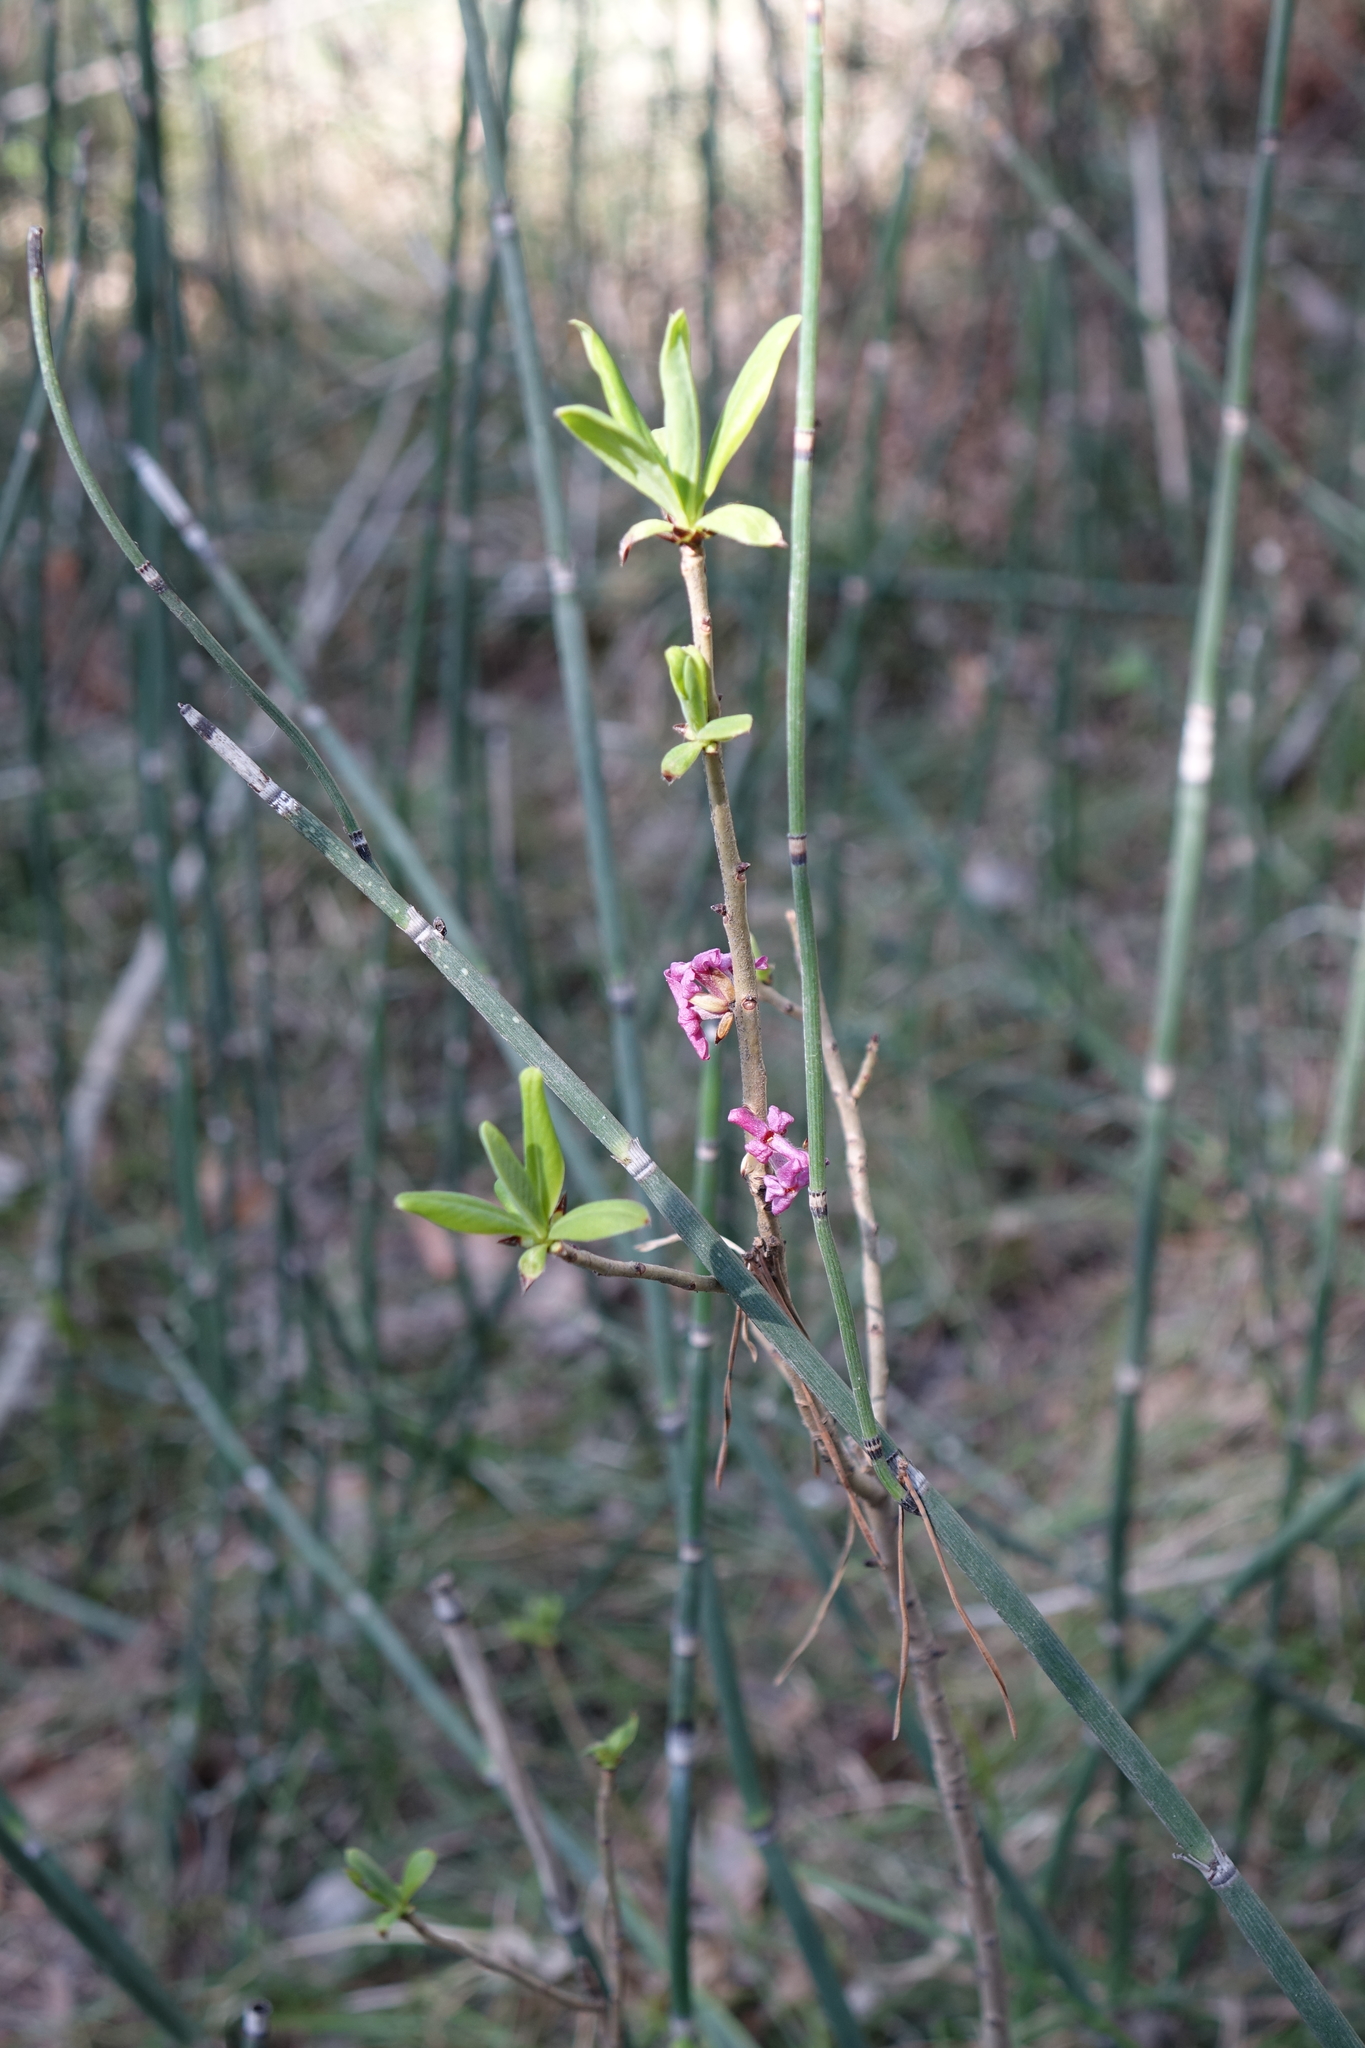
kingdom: Plantae
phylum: Tracheophyta
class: Magnoliopsida
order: Malvales
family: Thymelaeaceae
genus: Daphne
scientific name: Daphne mezereum
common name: Mezereon
